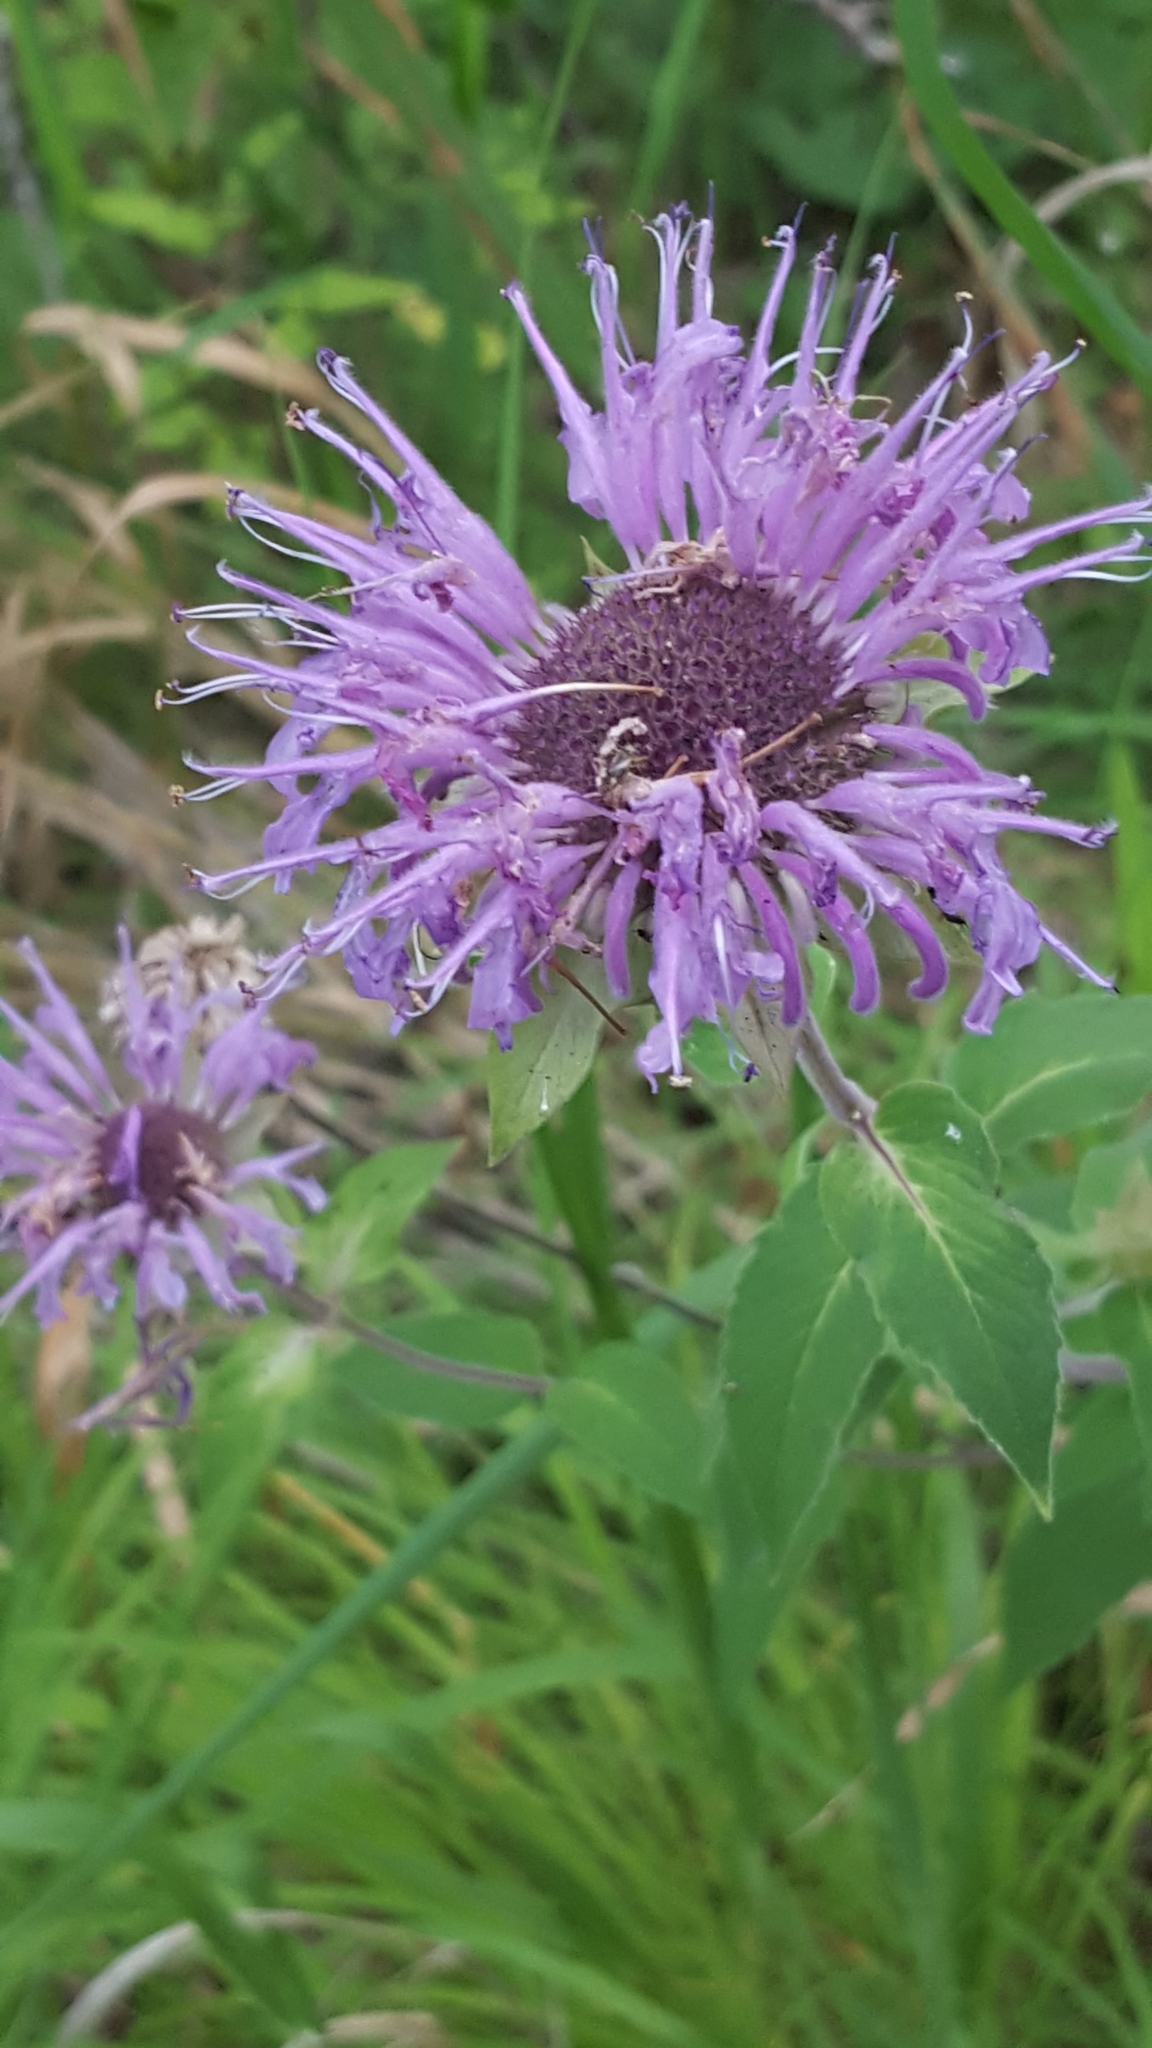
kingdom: Plantae
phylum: Tracheophyta
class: Magnoliopsida
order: Lamiales
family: Lamiaceae
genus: Monarda
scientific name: Monarda fistulosa
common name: Purple beebalm
